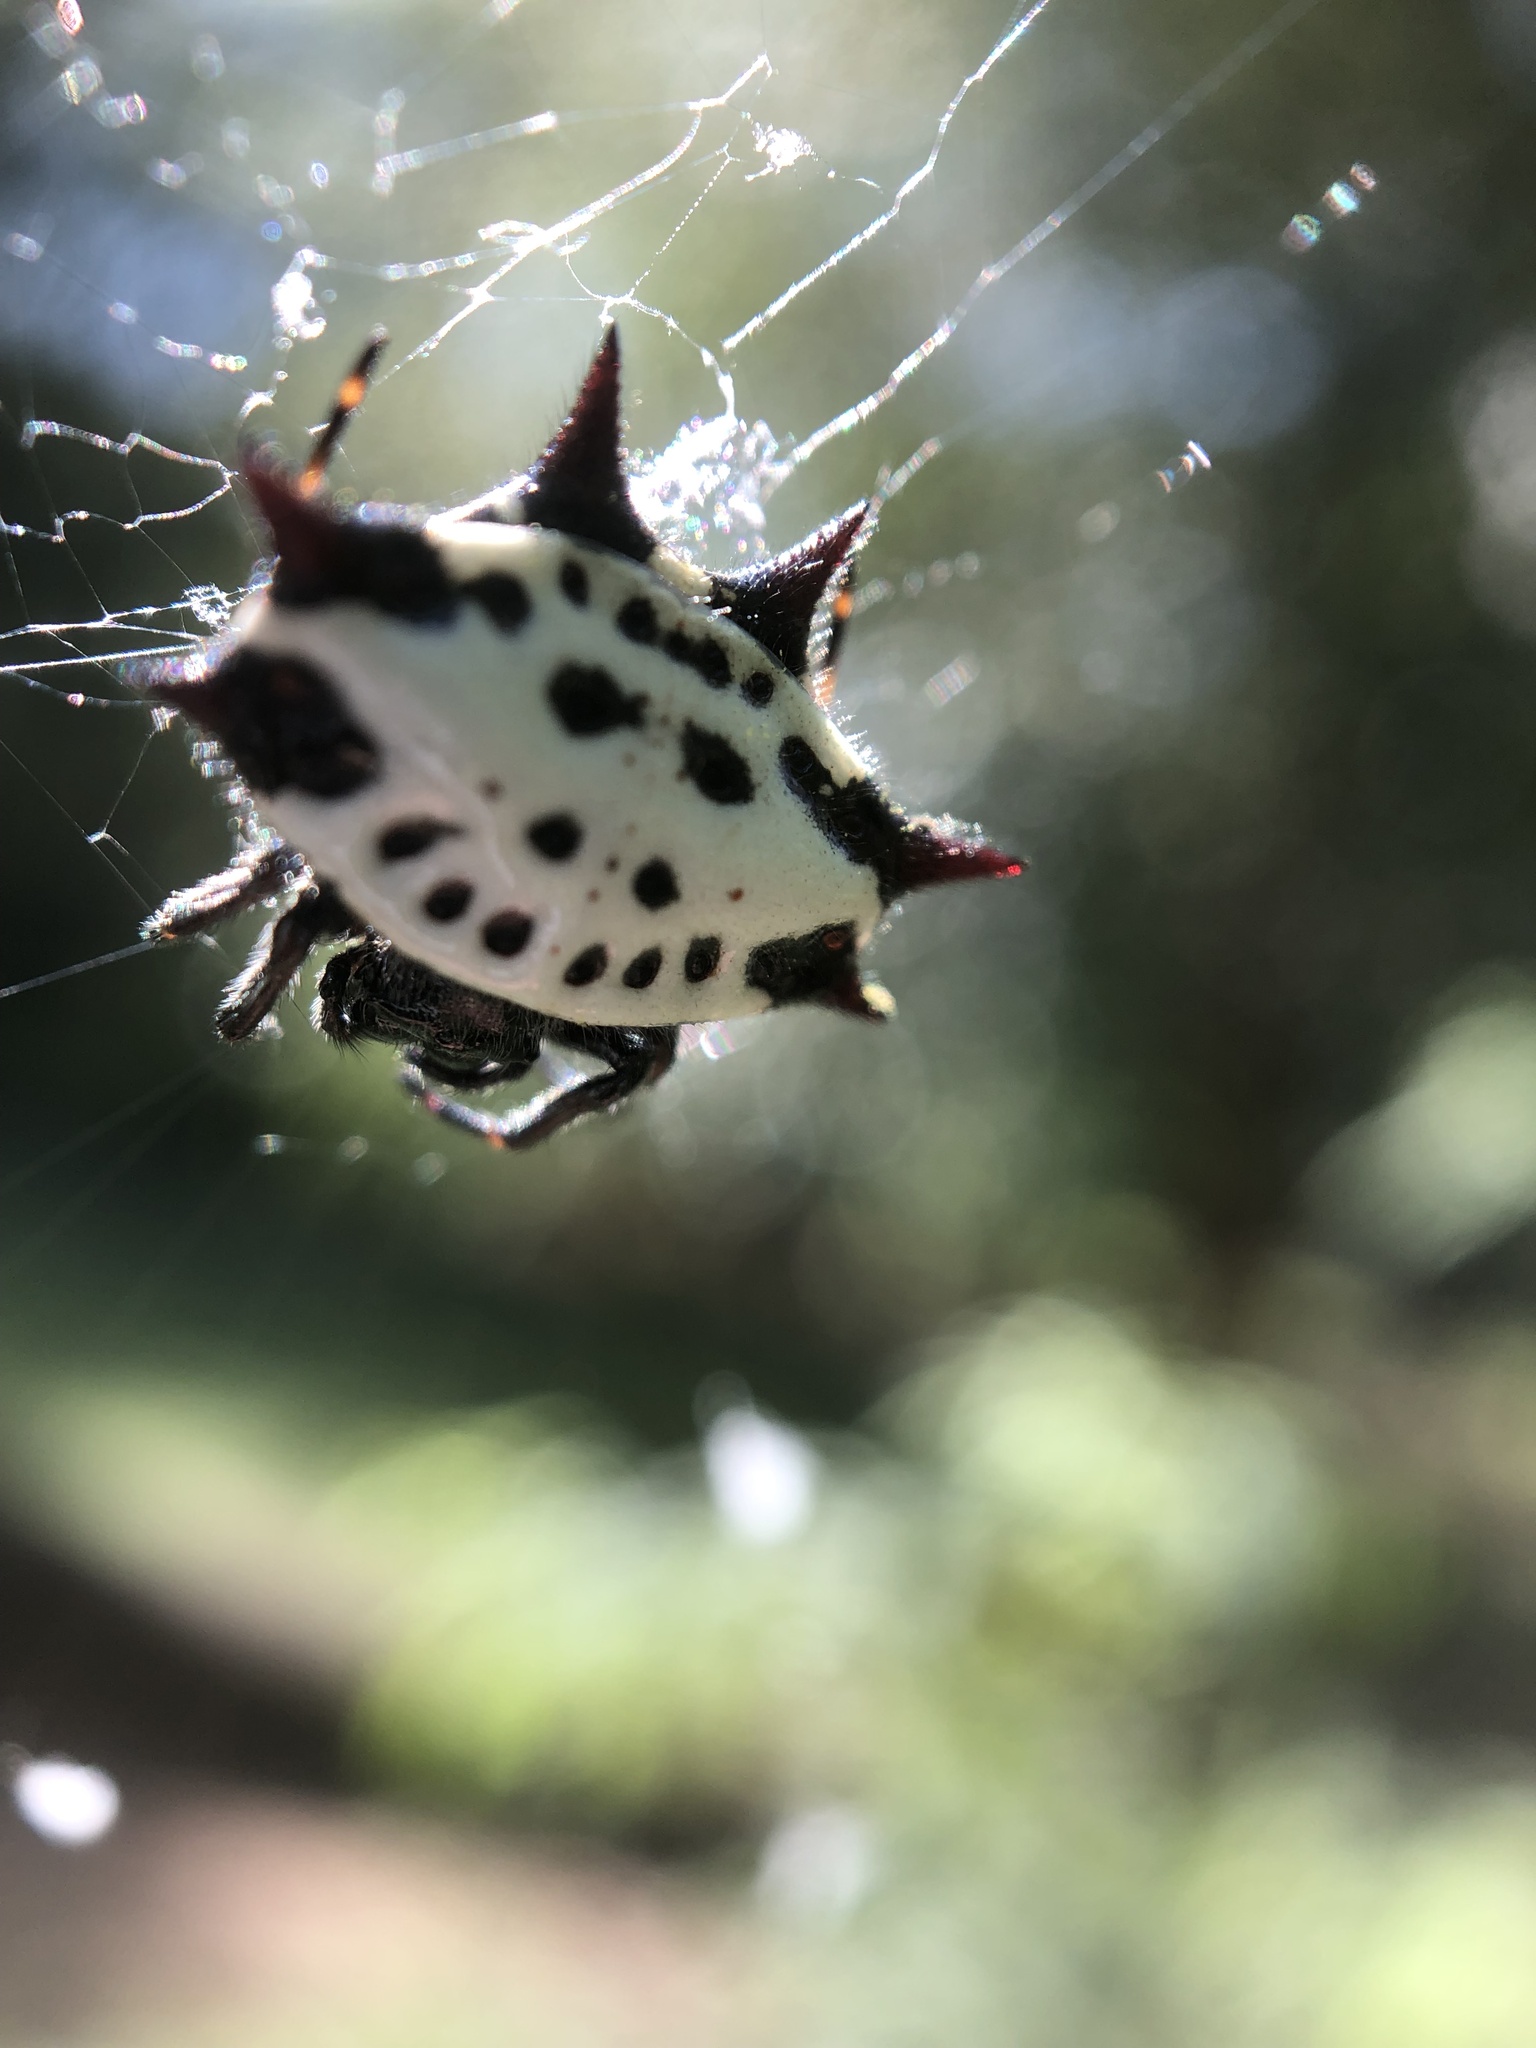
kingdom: Animalia
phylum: Arthropoda
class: Arachnida
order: Araneae
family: Araneidae
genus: Gasteracantha
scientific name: Gasteracantha cancriformis
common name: Orb weavers
